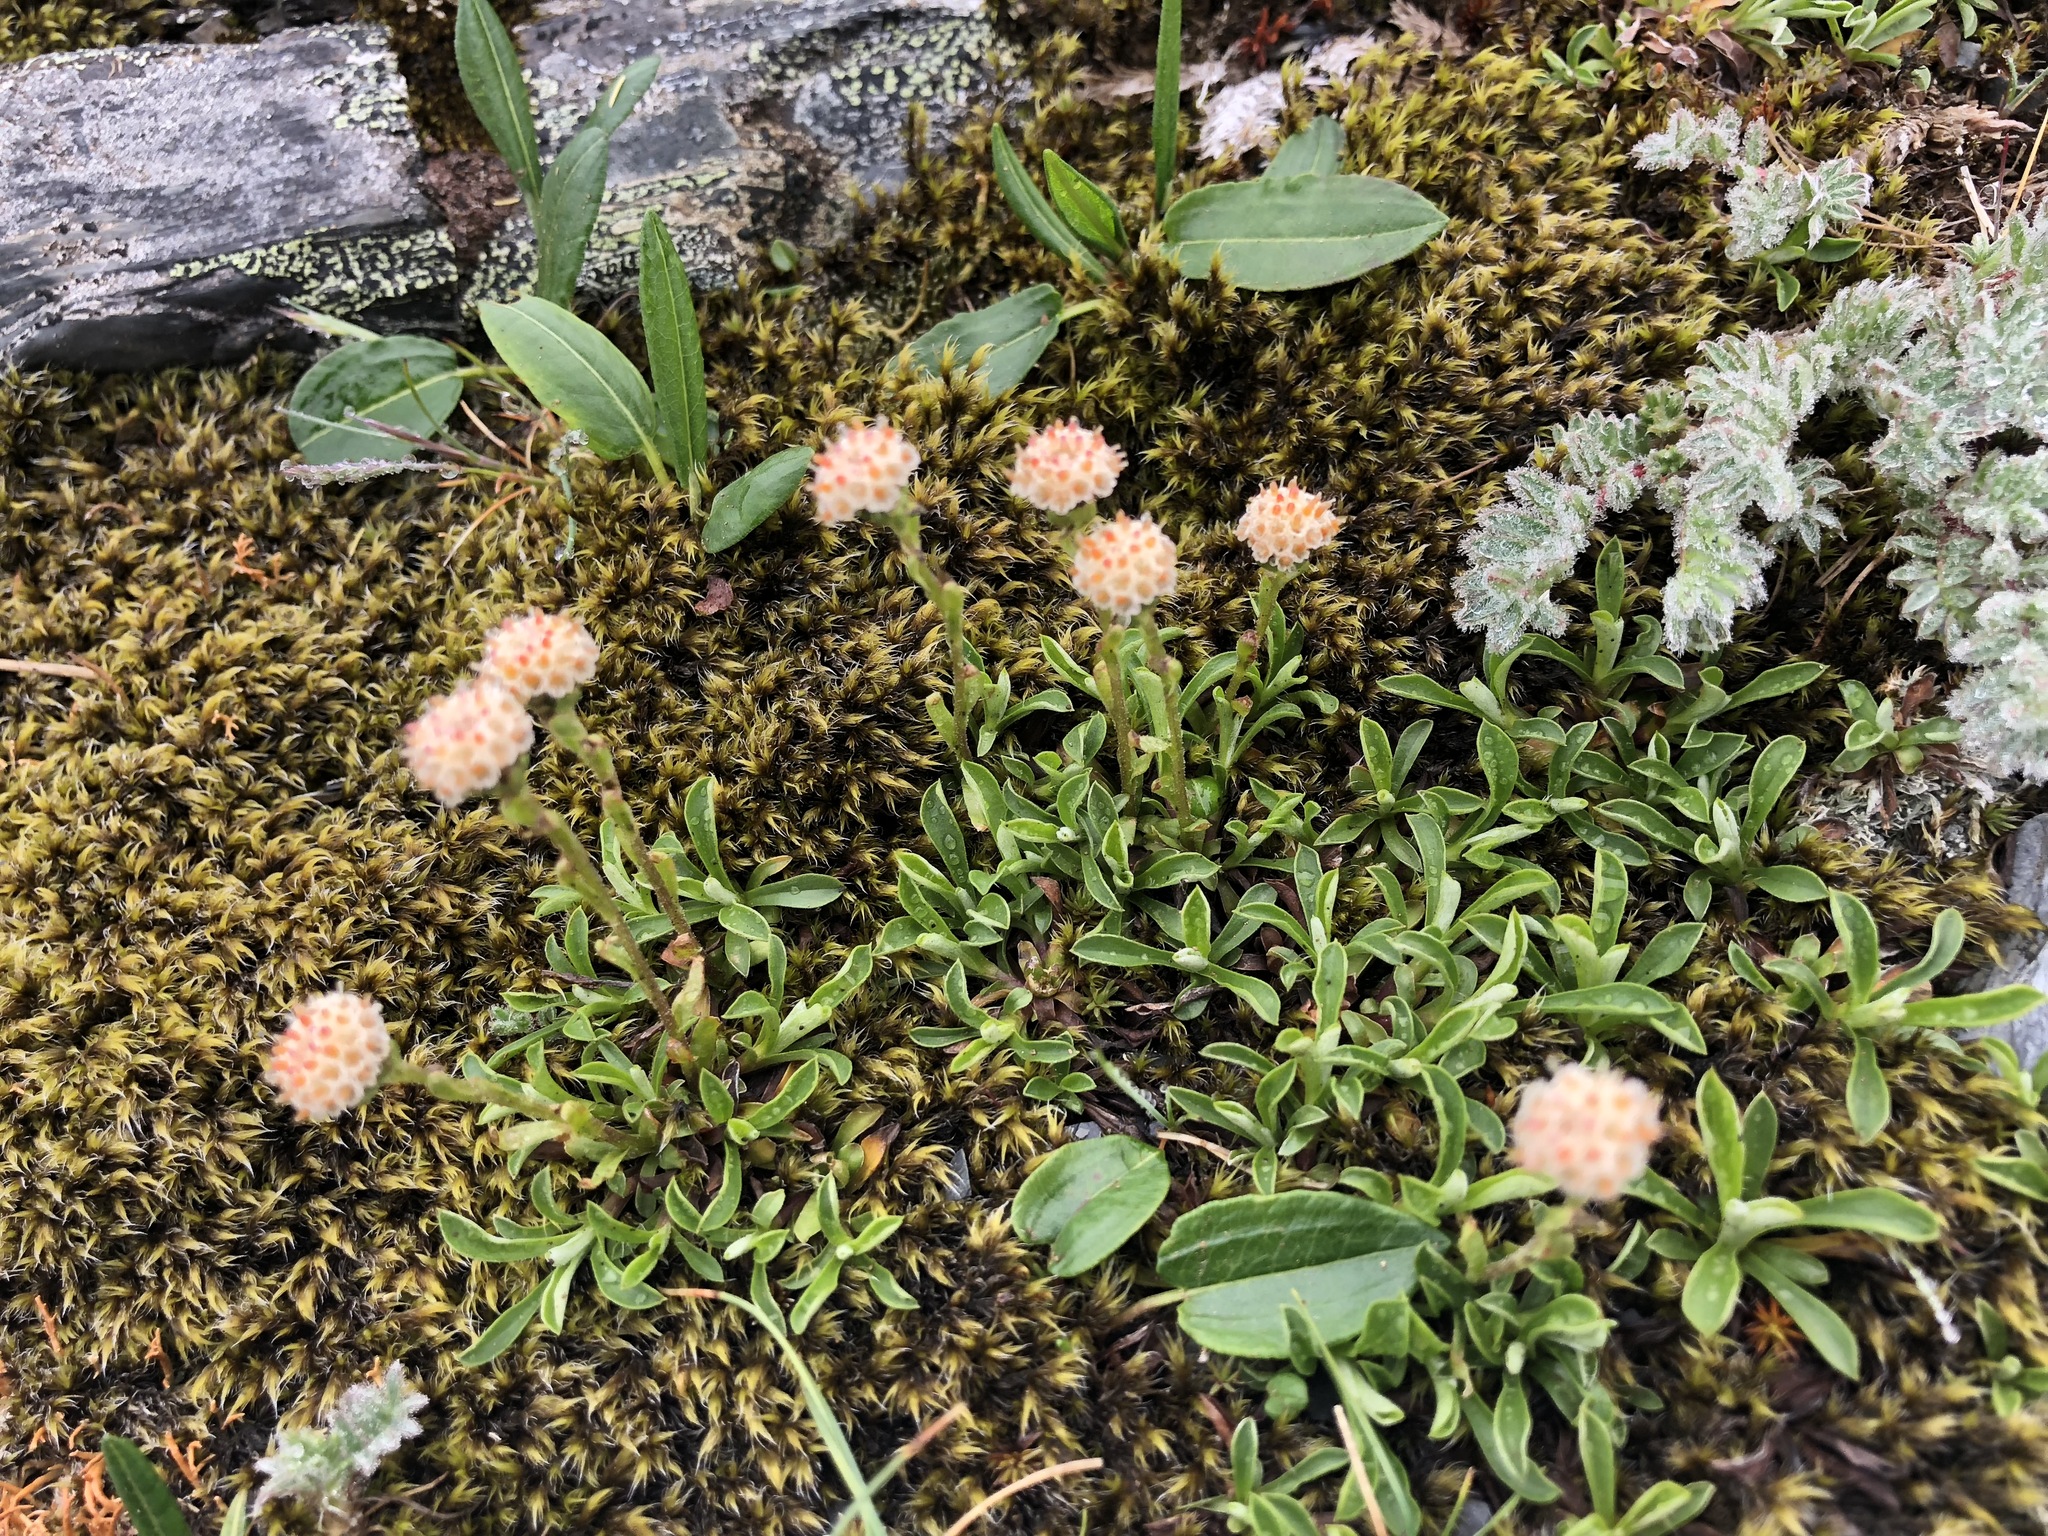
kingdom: Plantae
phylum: Tracheophyta
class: Magnoliopsida
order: Asterales
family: Asteraceae
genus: Antennaria
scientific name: Antennaria monocephala
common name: Pygmy pussytoes
